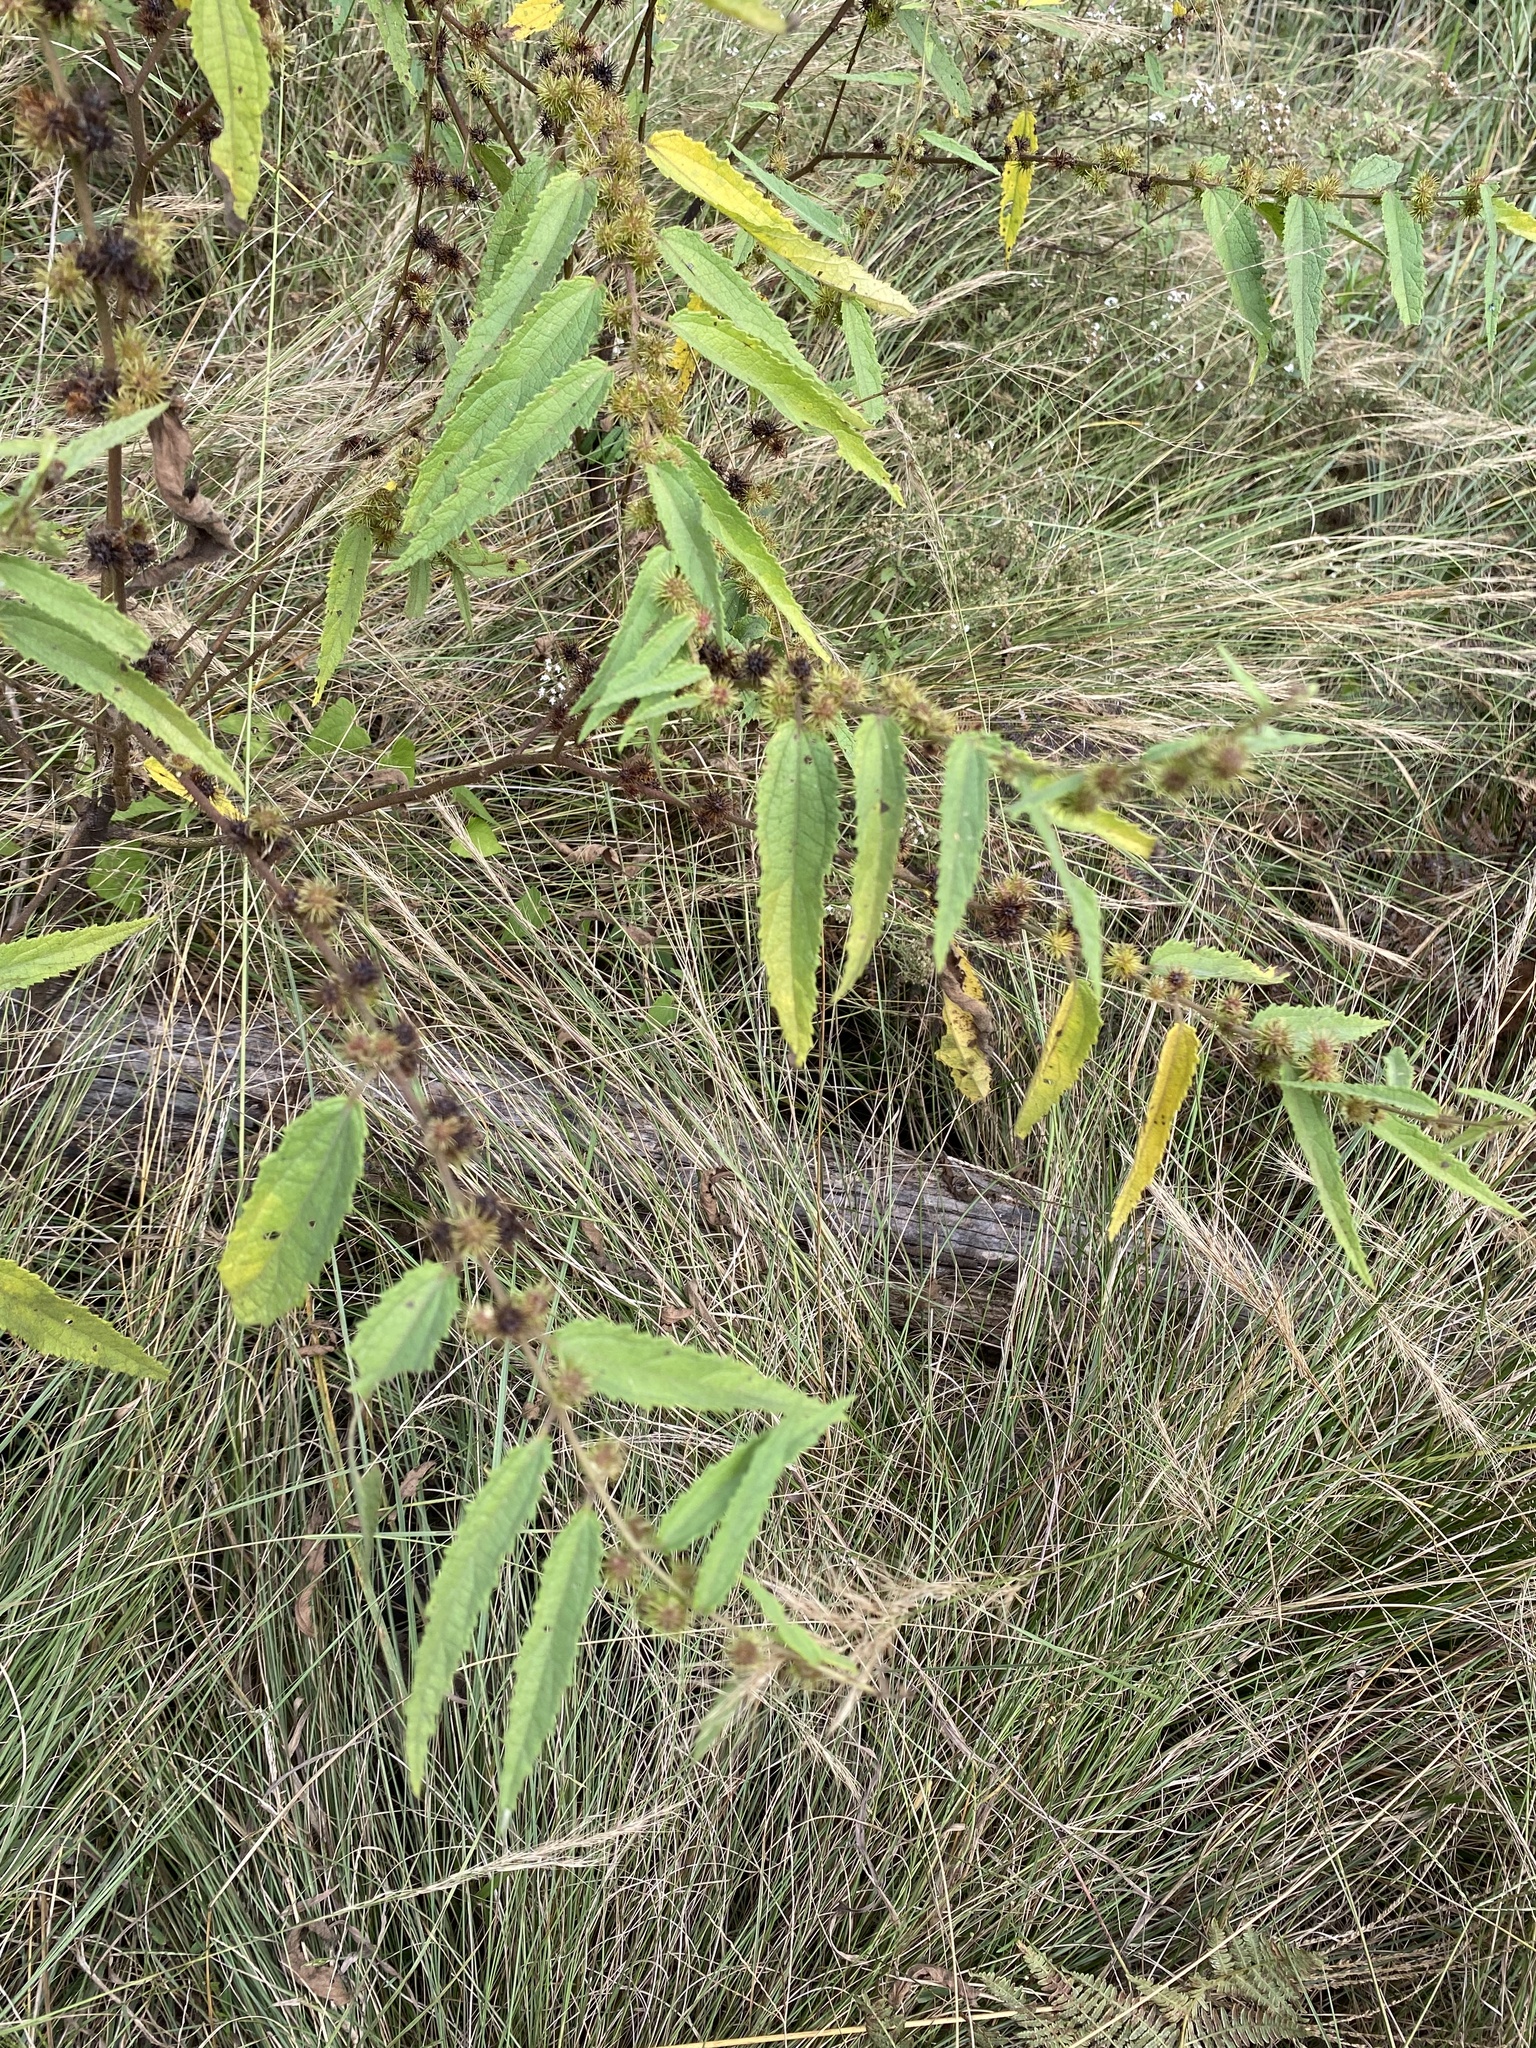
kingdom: Plantae
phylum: Tracheophyta
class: Magnoliopsida
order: Malvales
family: Malvaceae
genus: Triumfetta
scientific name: Triumfetta pilosa
